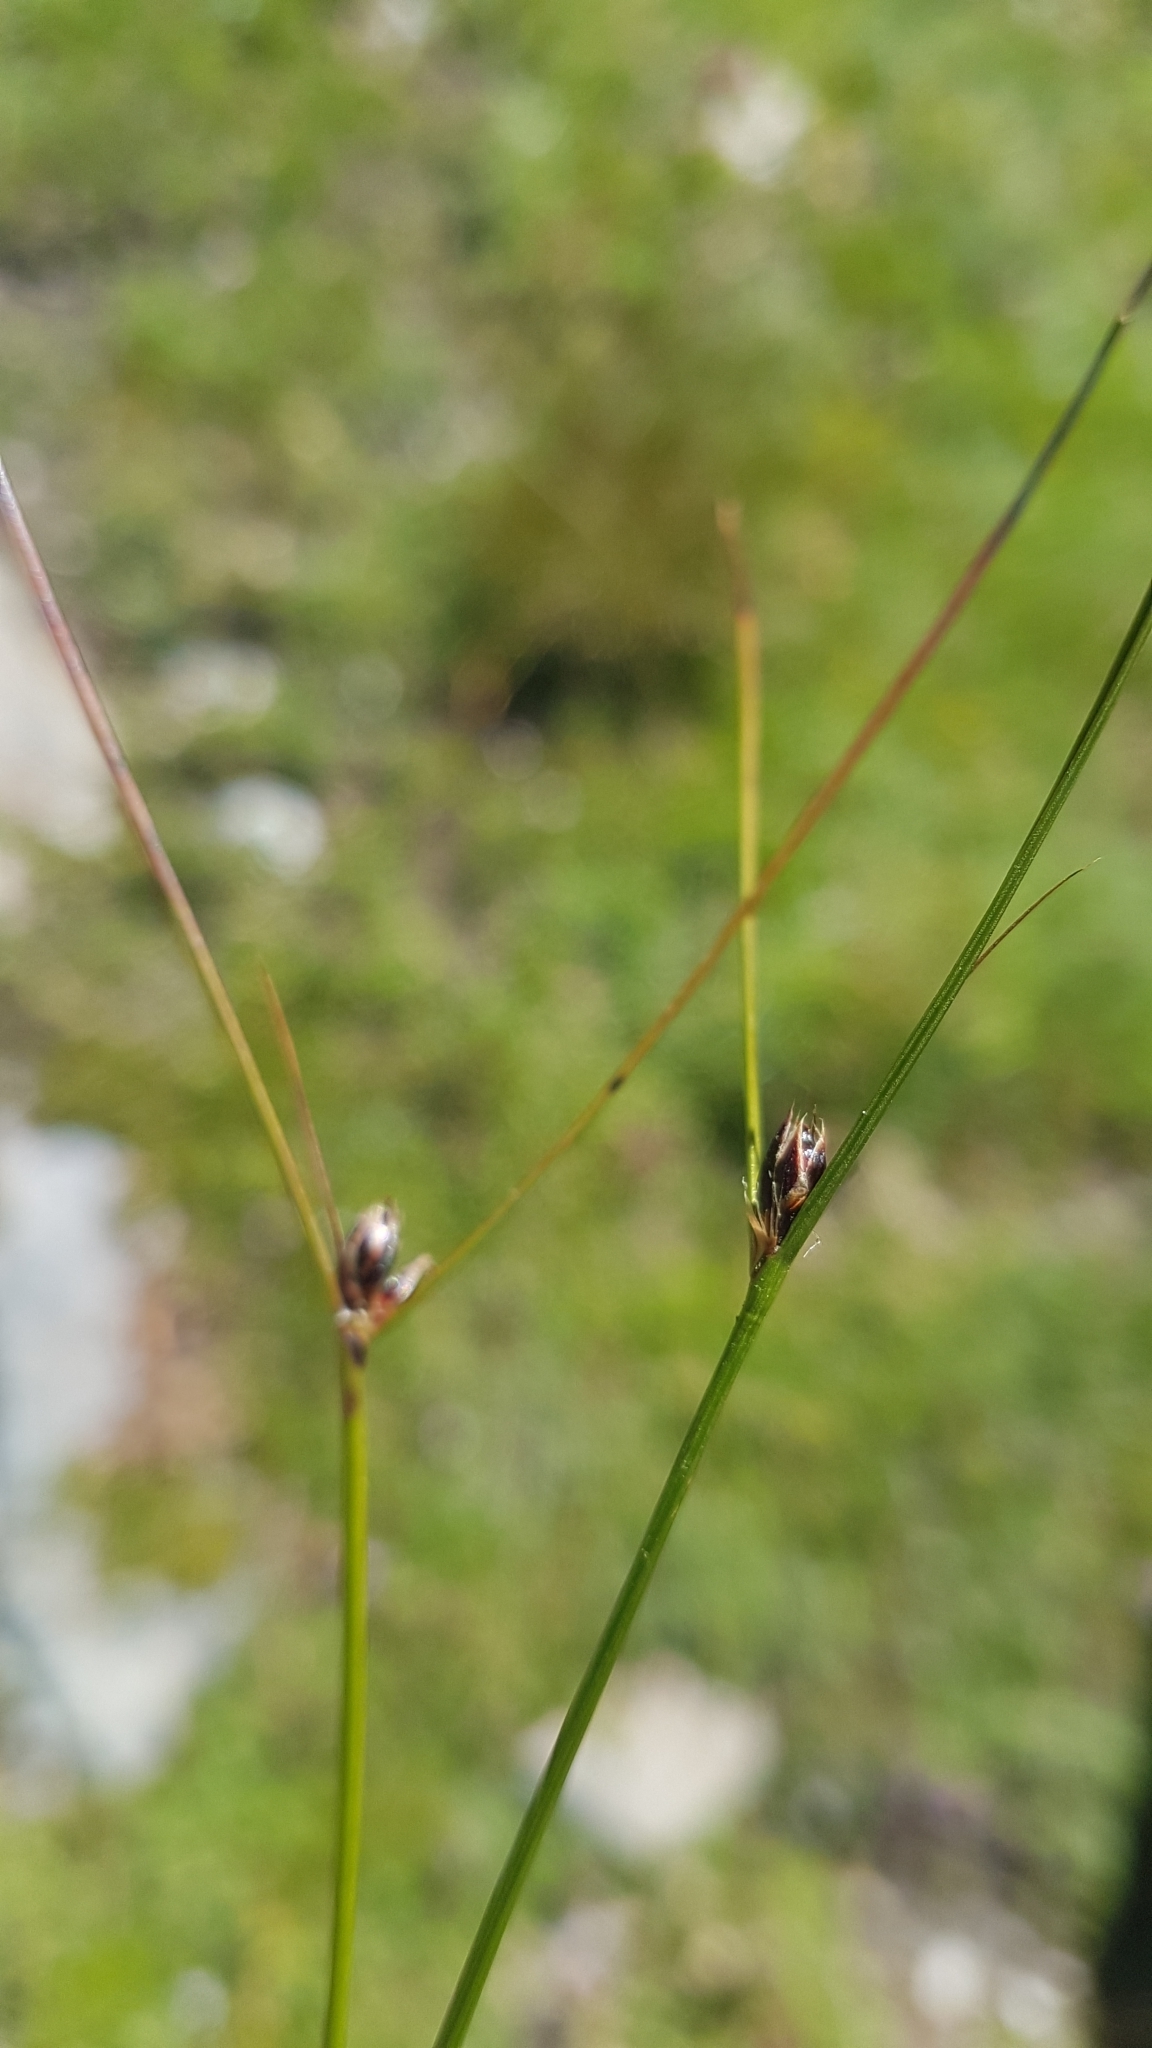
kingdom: Plantae
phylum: Tracheophyta
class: Liliopsida
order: Poales
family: Juncaceae
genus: Oreojuncus
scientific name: Oreojuncus trifidus
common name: Highland rush
